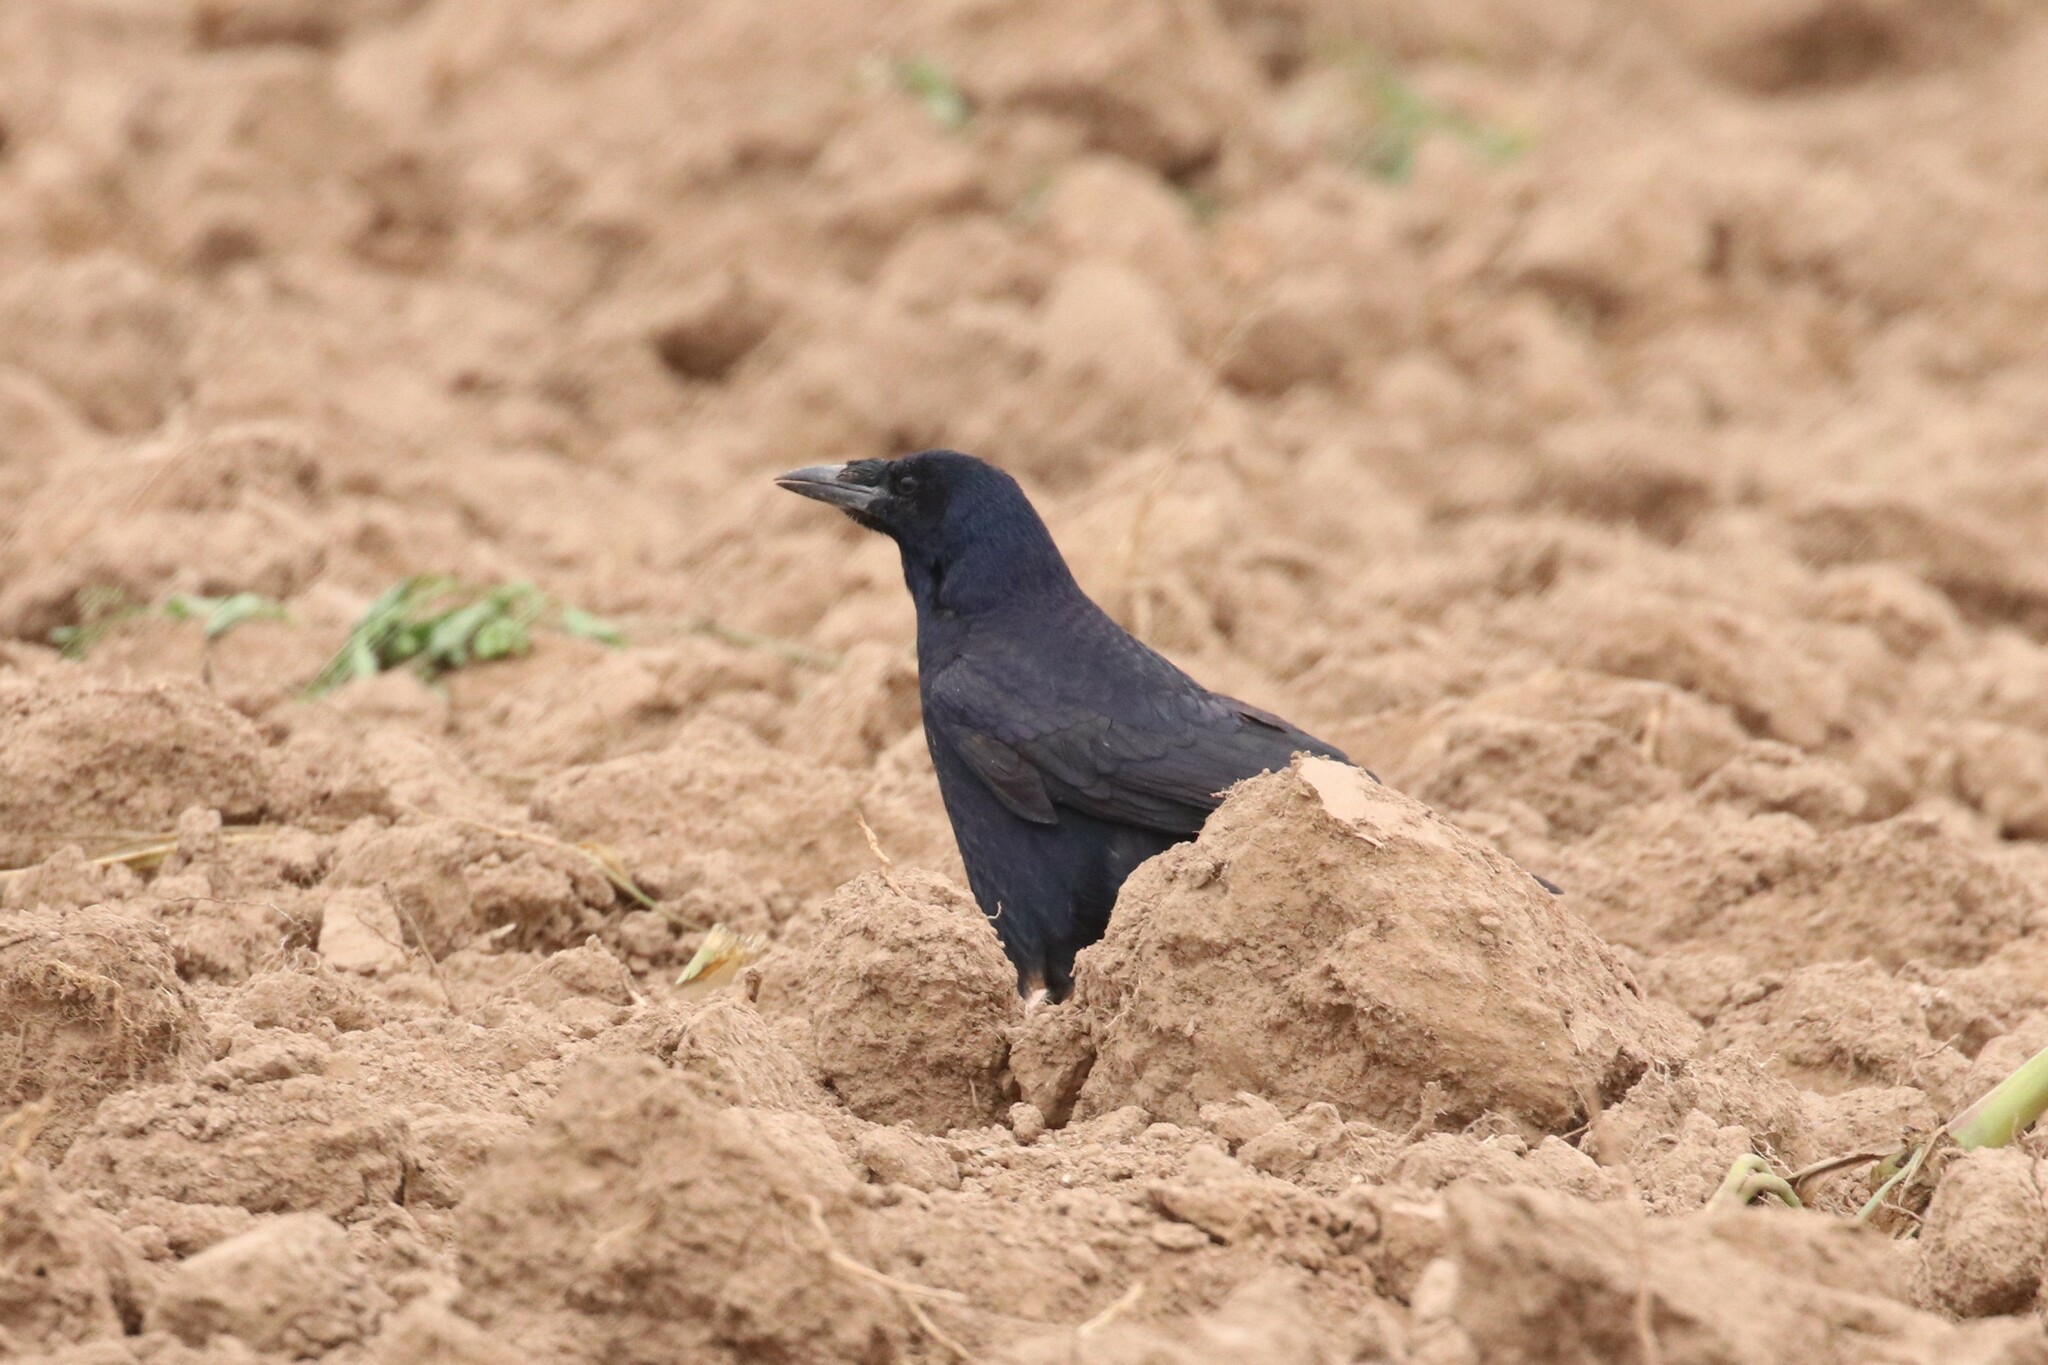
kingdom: Animalia
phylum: Chordata
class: Aves
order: Passeriformes
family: Corvidae
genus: Corvus
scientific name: Corvus frugilegus
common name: Rook
